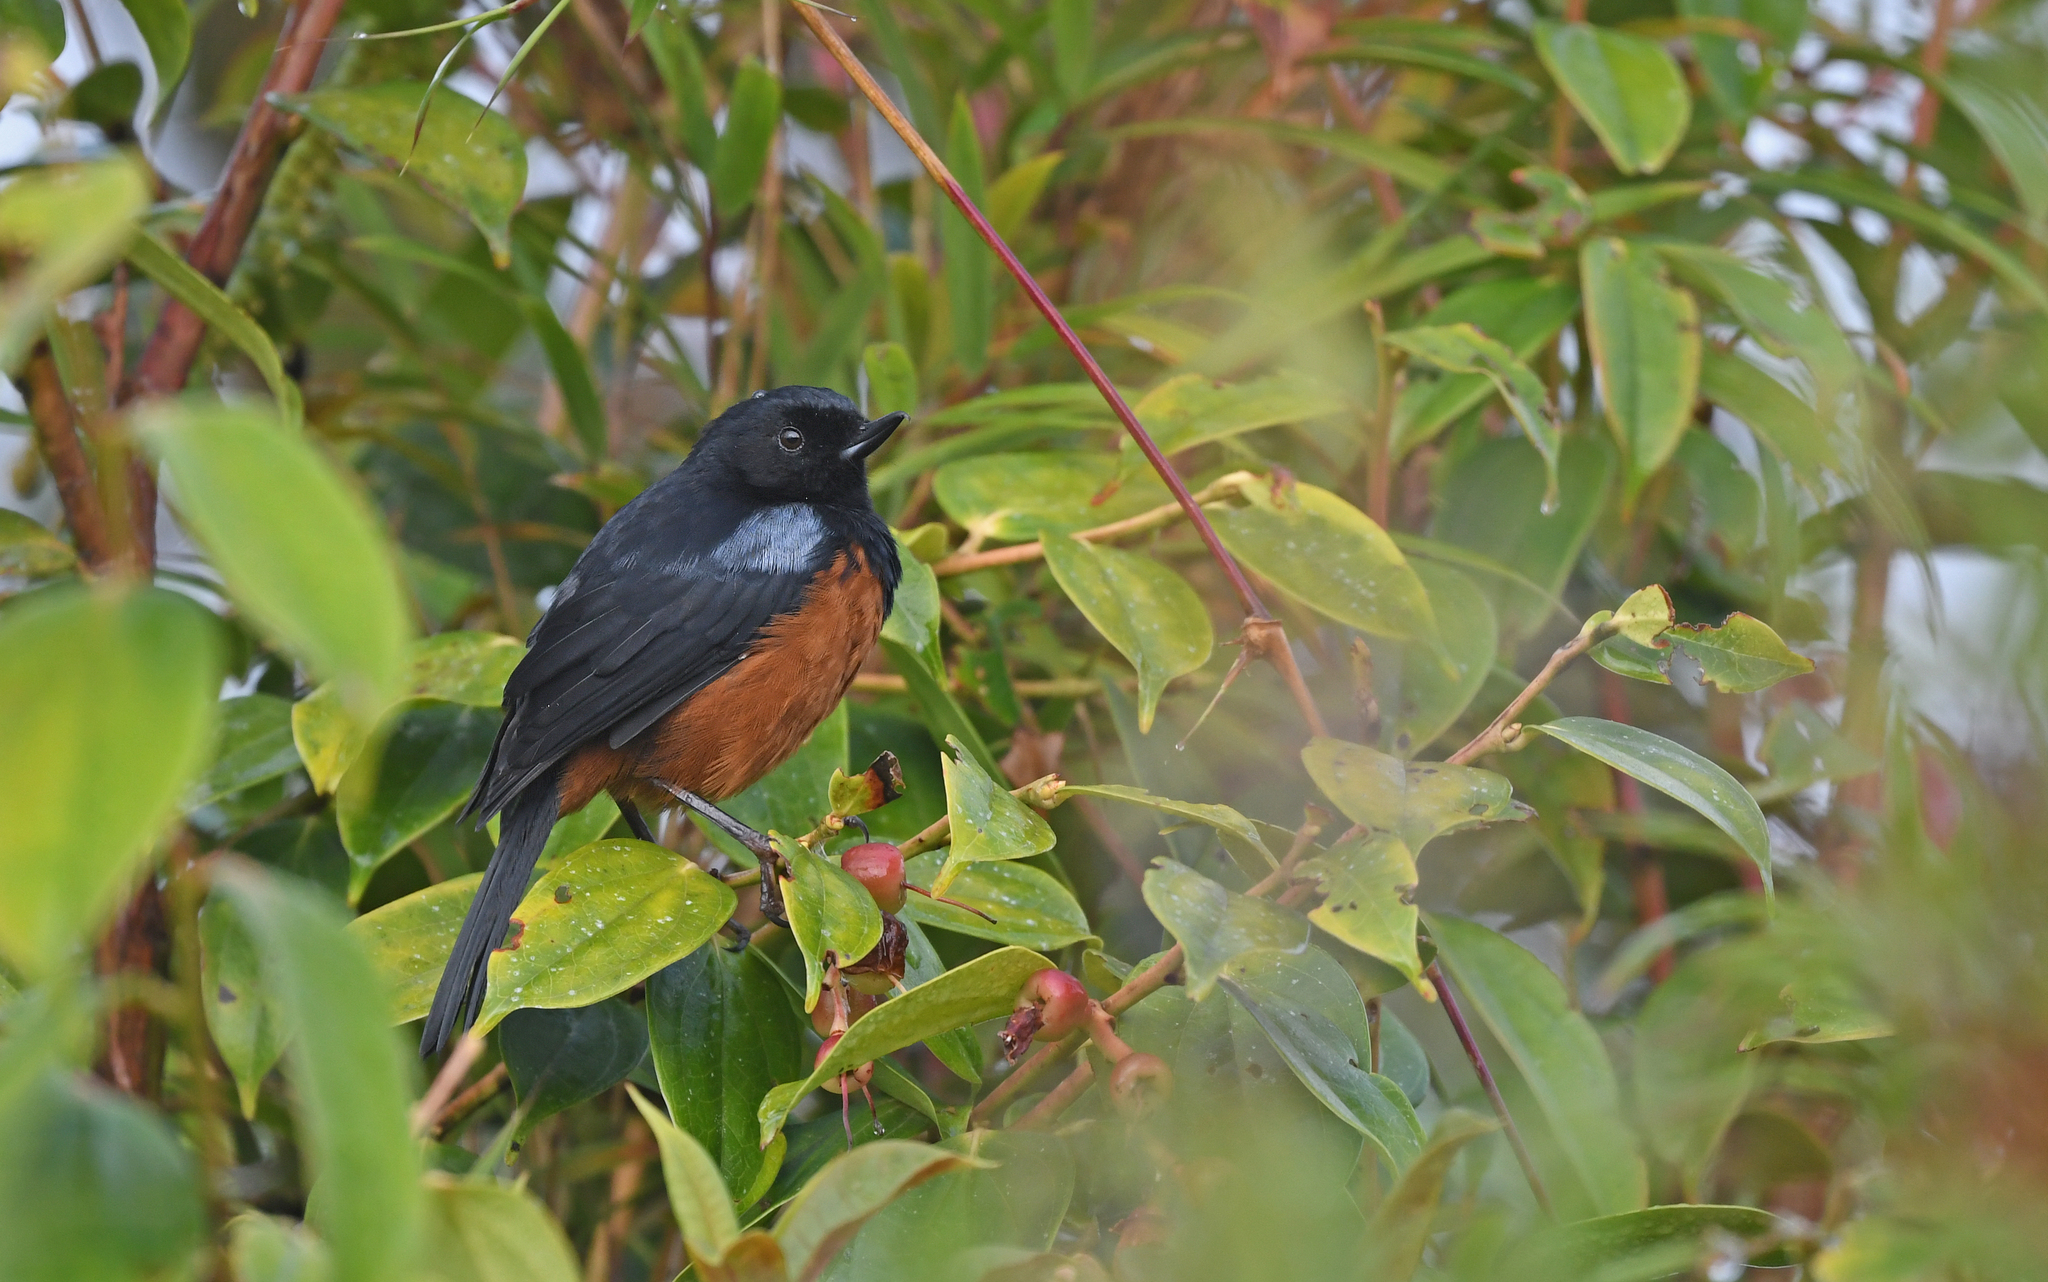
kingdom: Animalia
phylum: Chordata
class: Aves
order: Passeriformes
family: Thraupidae
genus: Diglossa
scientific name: Diglossa gloriosissima
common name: Chestnut-bellied flowerpiercer
